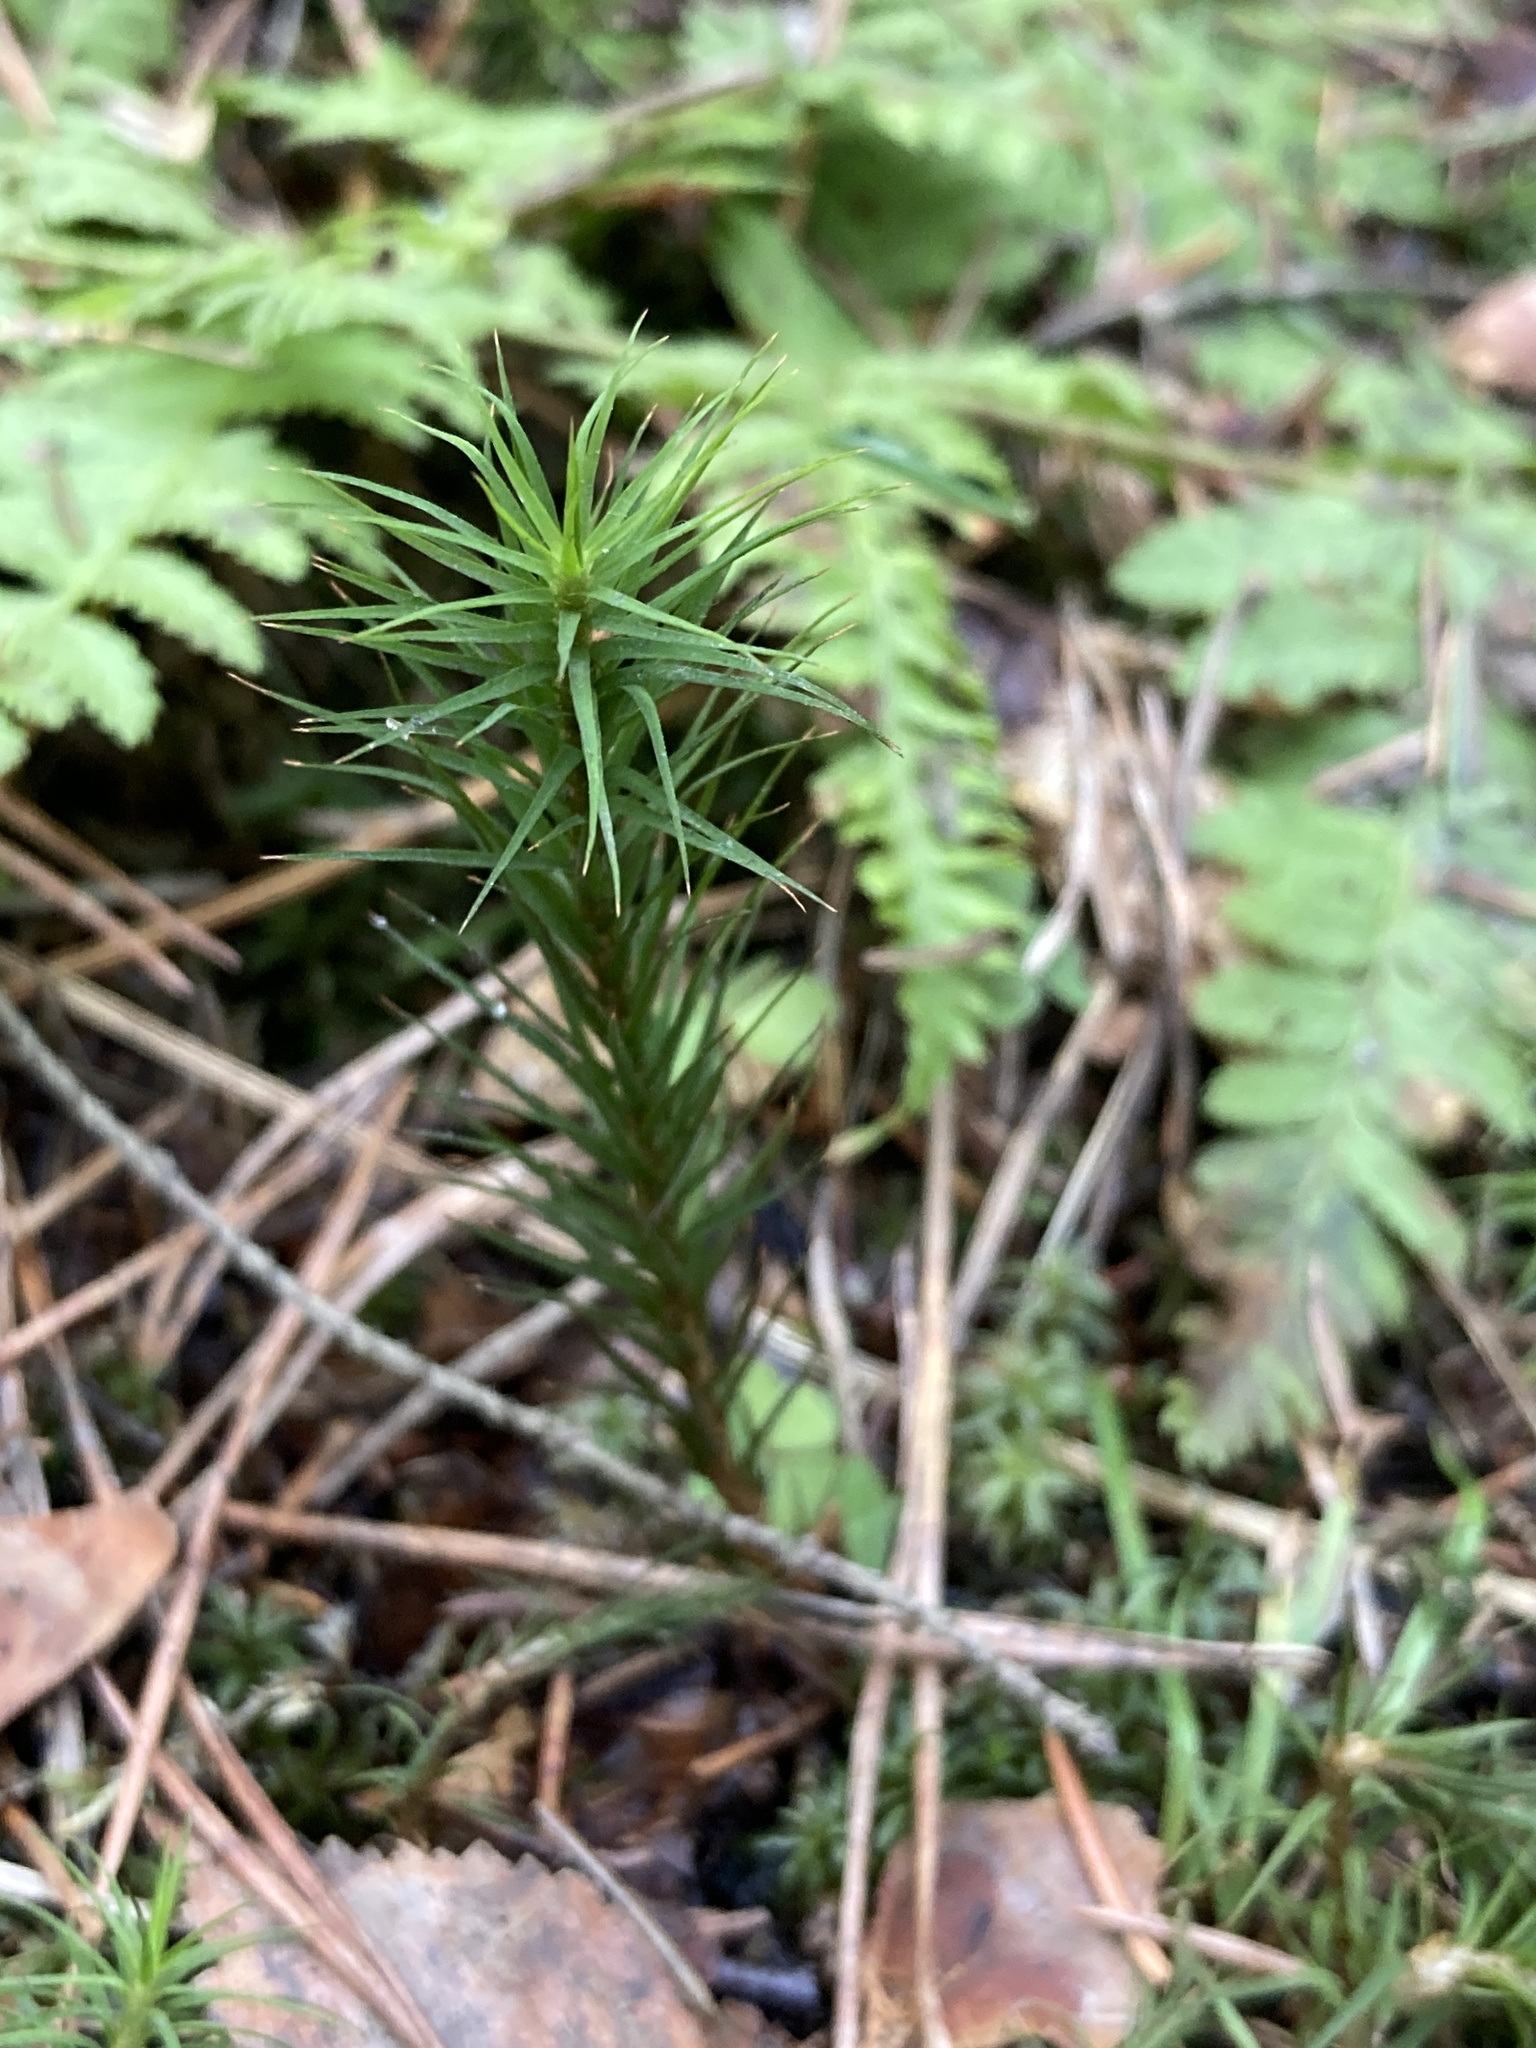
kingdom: Plantae
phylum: Bryophyta
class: Polytrichopsida
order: Polytrichales
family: Polytrichaceae
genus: Polytrichum
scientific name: Polytrichum commune
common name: Common haircap
